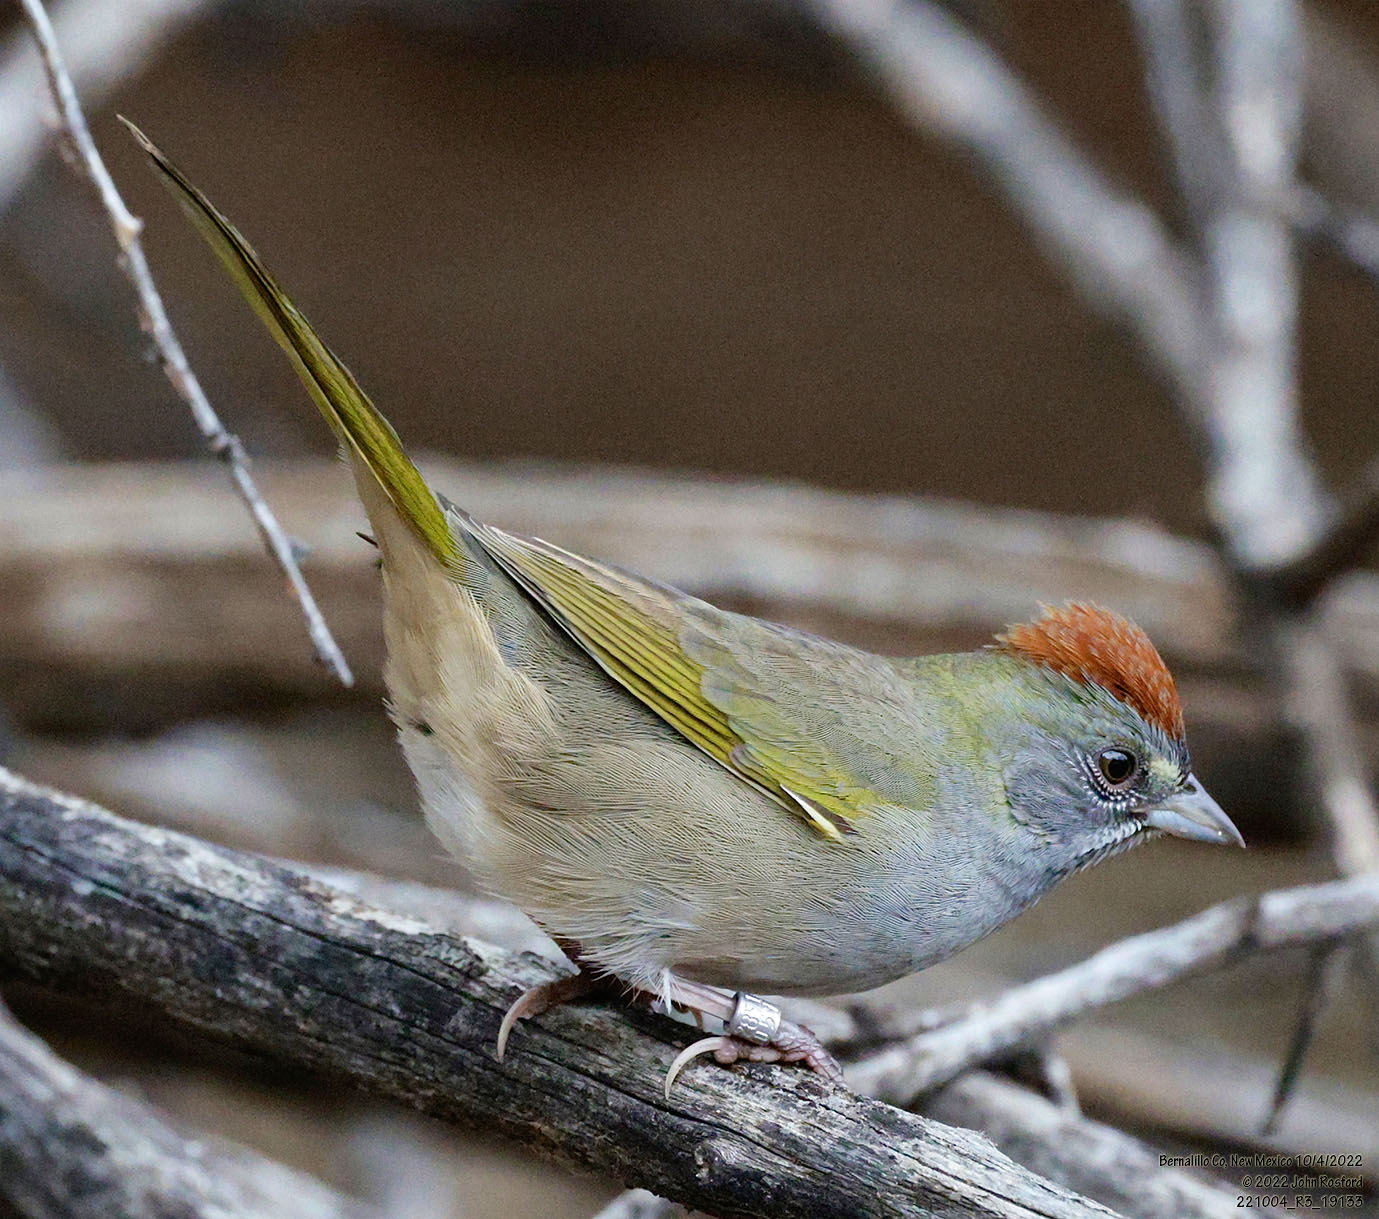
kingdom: Animalia
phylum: Chordata
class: Aves
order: Passeriformes
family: Passerellidae
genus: Pipilo
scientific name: Pipilo chlorurus
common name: Green-tailed towhee
